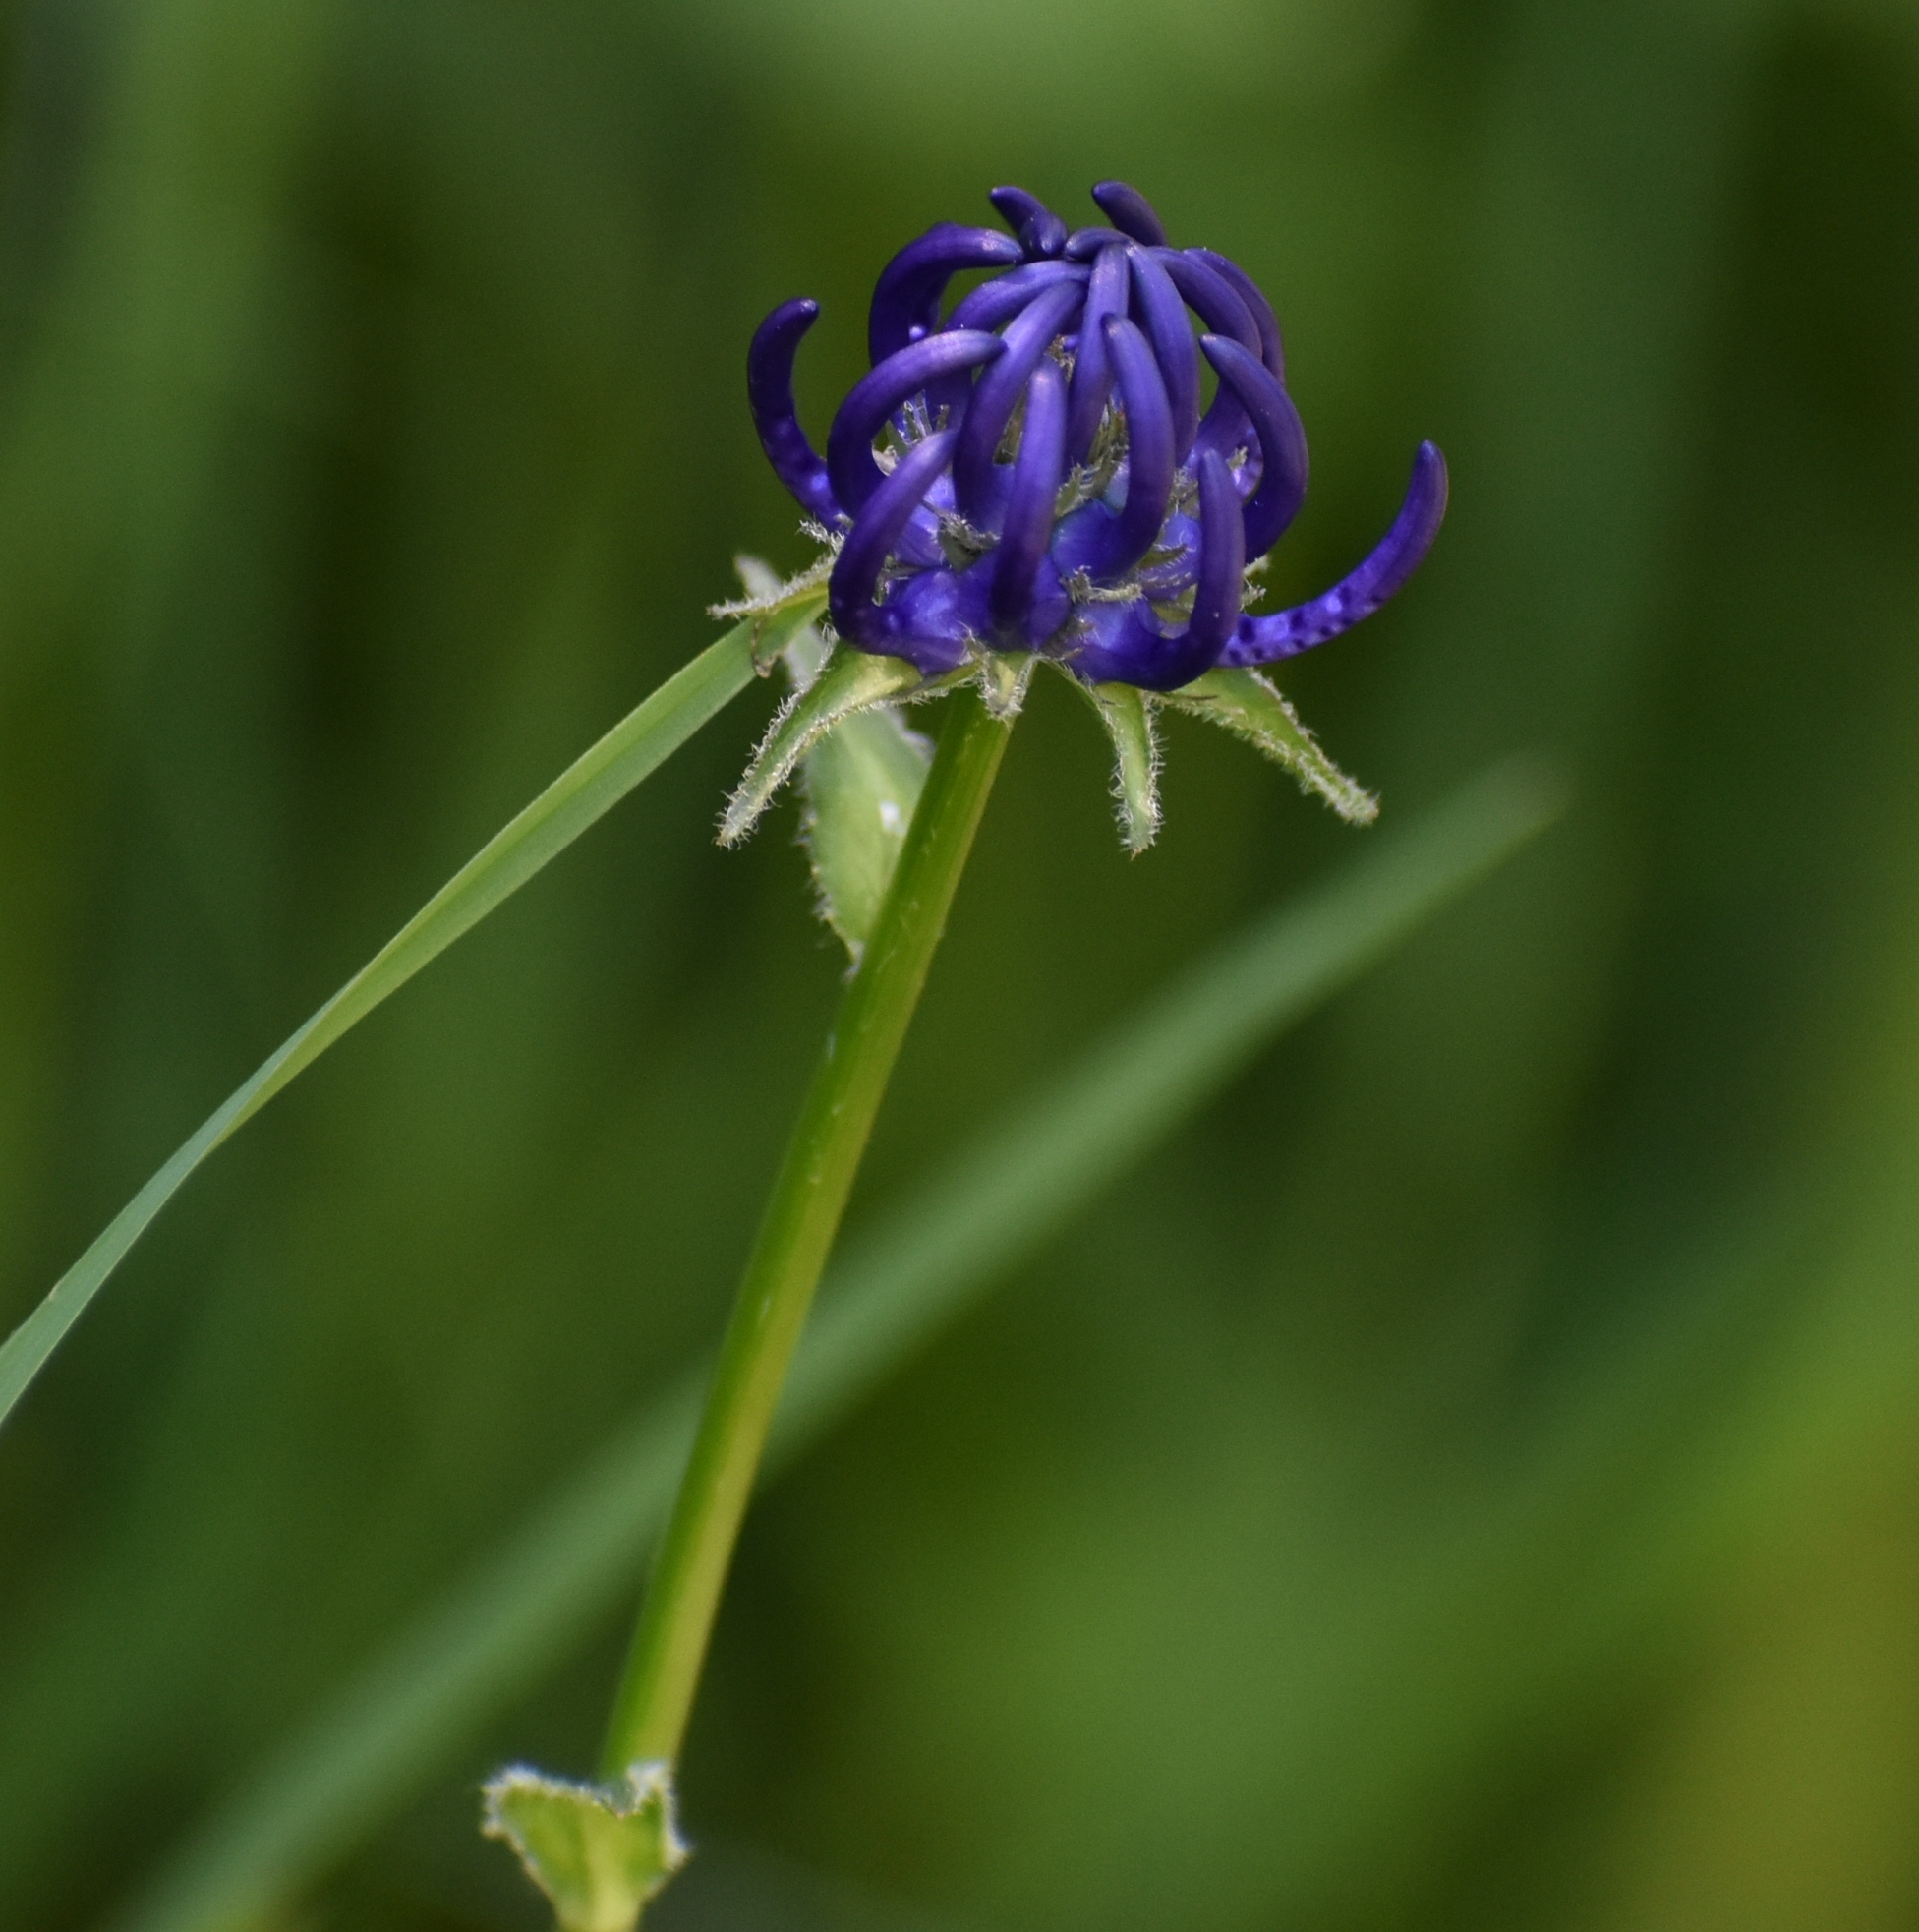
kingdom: Plantae
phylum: Tracheophyta
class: Magnoliopsida
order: Asterales
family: Campanulaceae
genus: Phyteuma
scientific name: Phyteuma orbiculare
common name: Round-headed rampion
